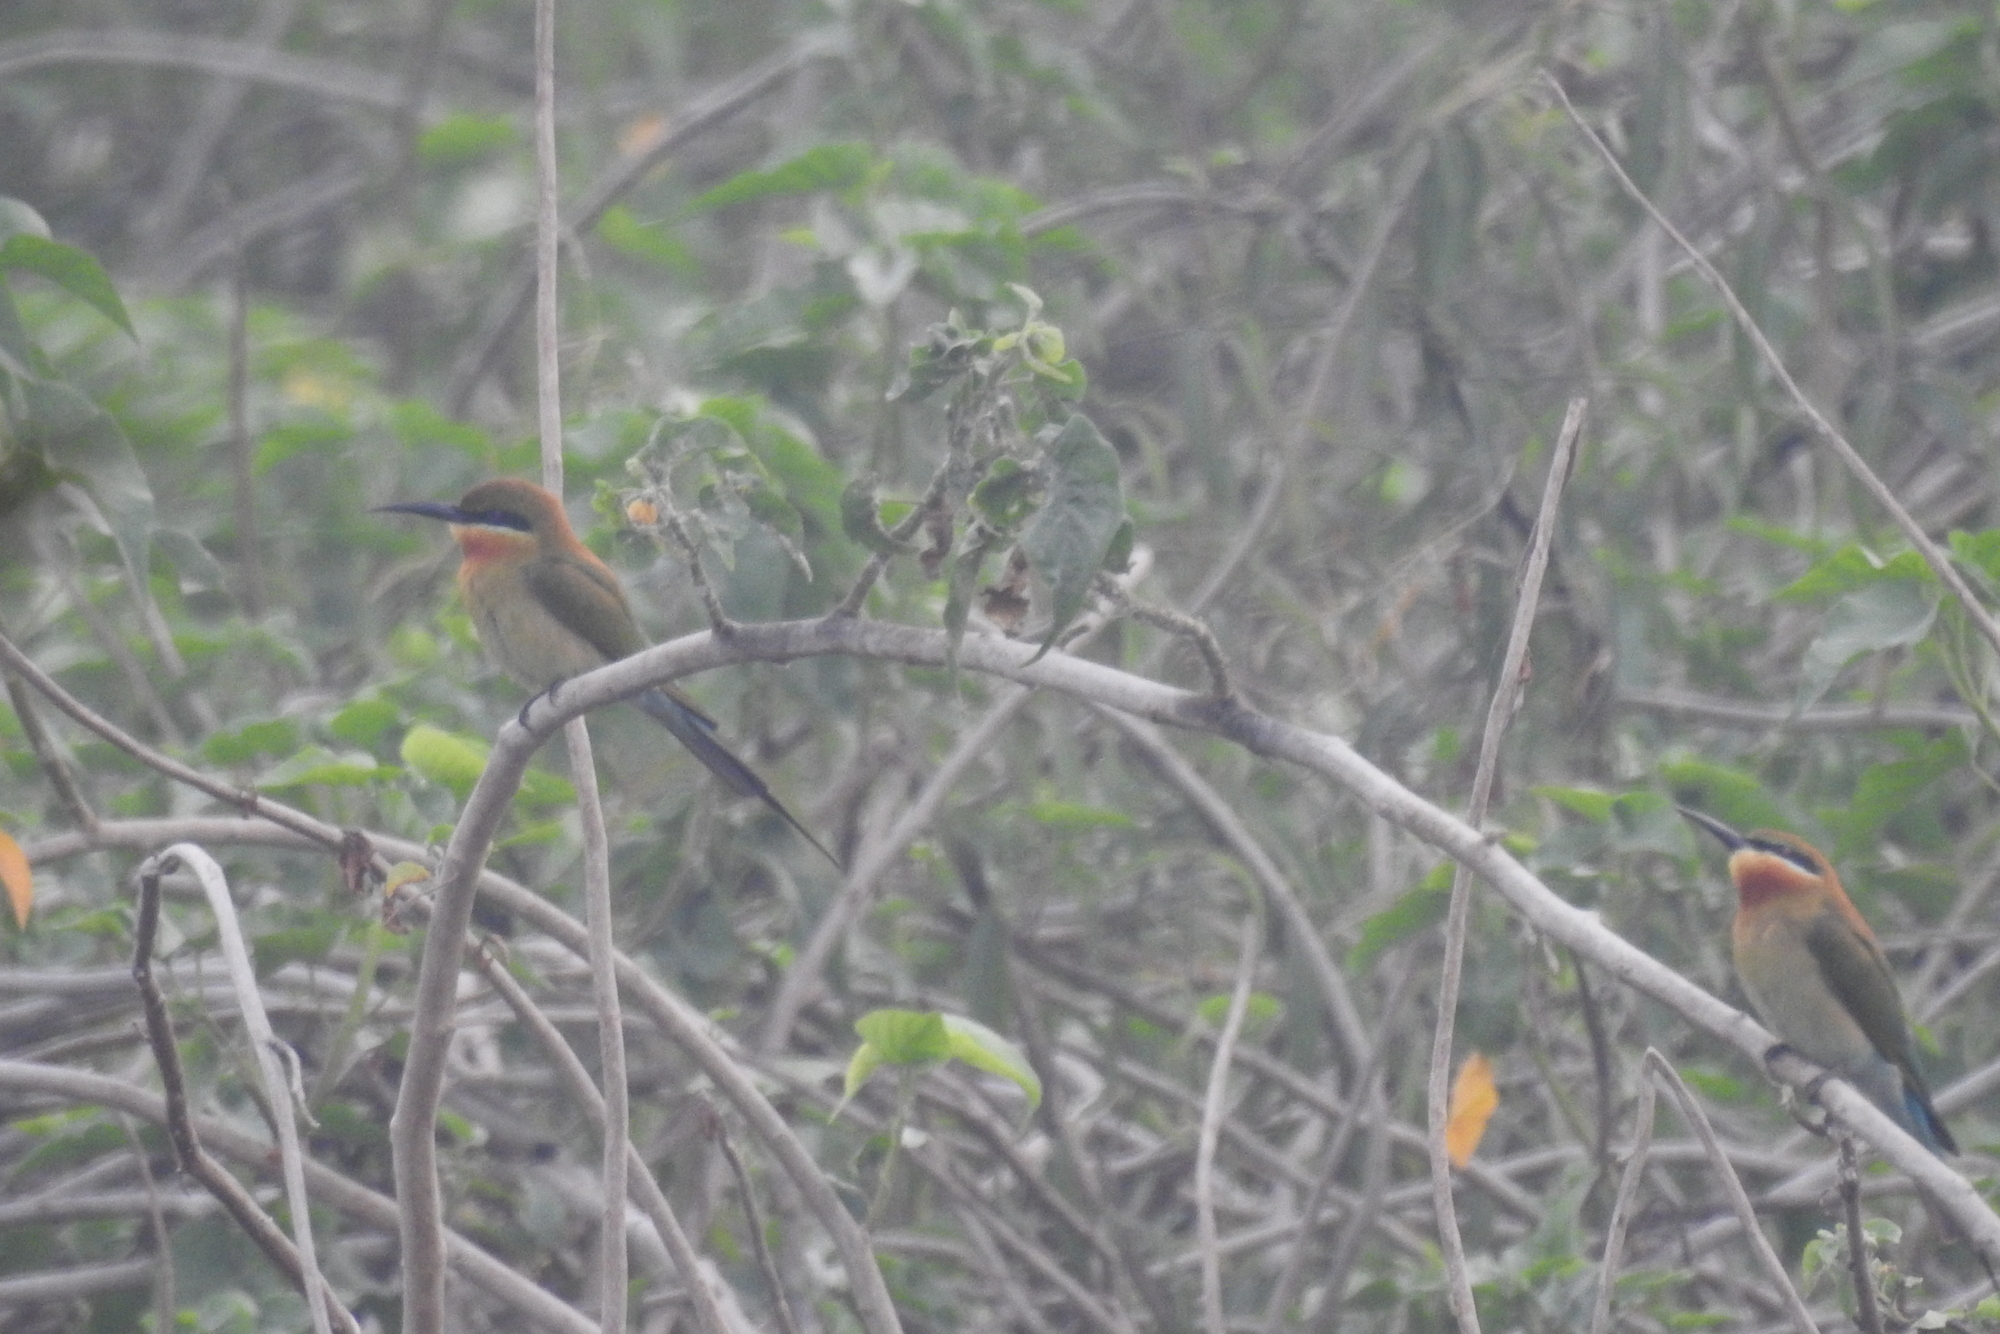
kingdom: Animalia
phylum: Chordata
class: Aves
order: Coraciiformes
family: Meropidae
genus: Merops
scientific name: Merops philippinus
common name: Blue-tailed bee-eater
